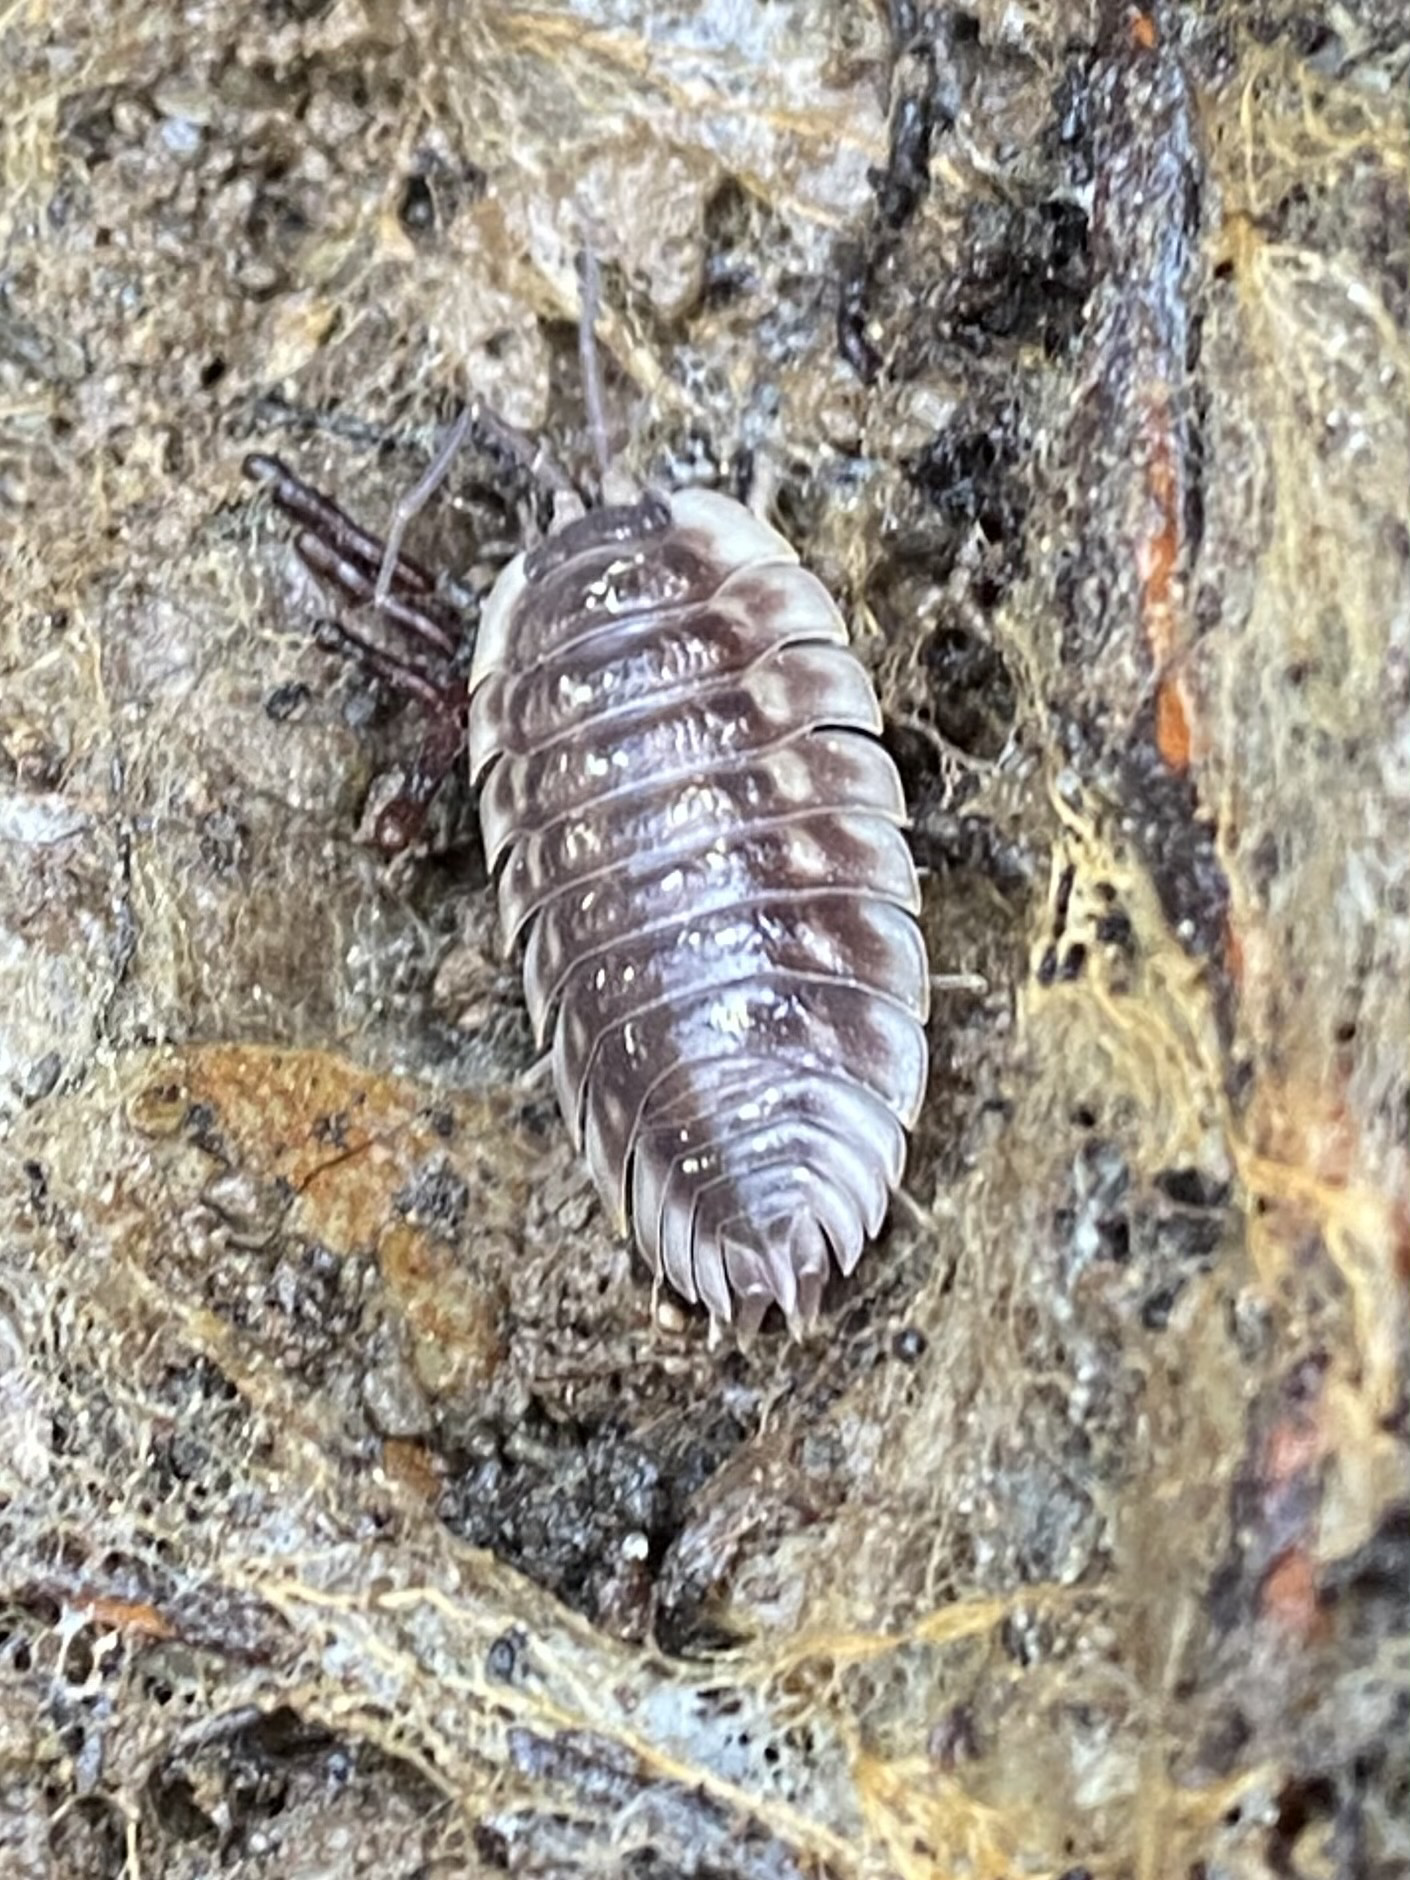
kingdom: Animalia
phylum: Arthropoda
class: Malacostraca
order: Isopoda
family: Oniscidae
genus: Oniscus
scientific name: Oniscus asellus
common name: Common shiny woodlouse
